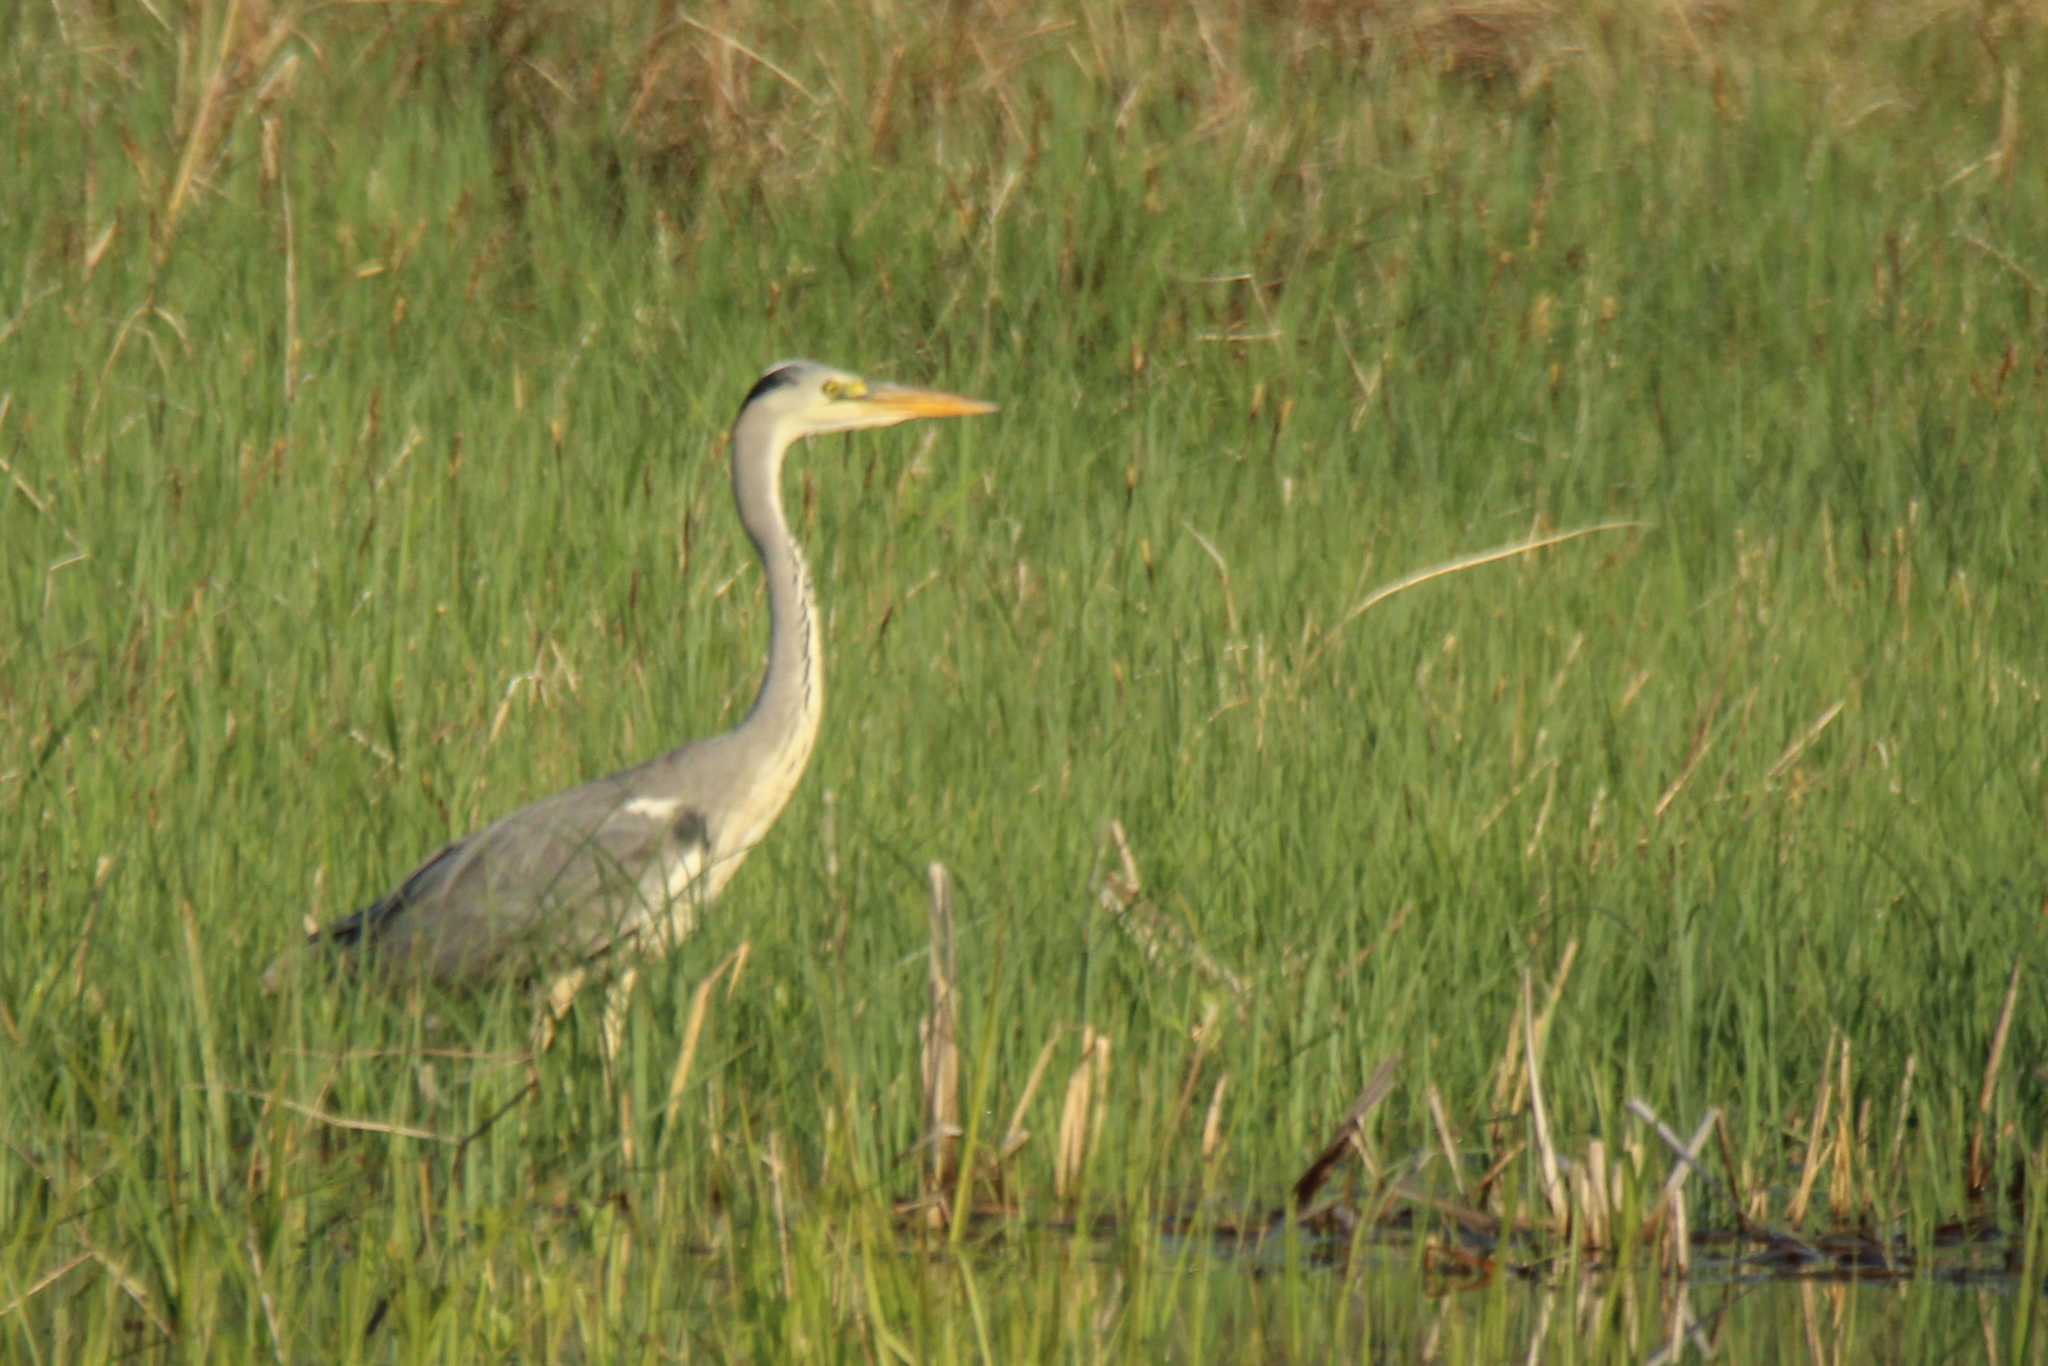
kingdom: Animalia
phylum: Chordata
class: Aves
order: Pelecaniformes
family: Ardeidae
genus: Ardea
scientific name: Ardea cinerea
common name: Grey heron
